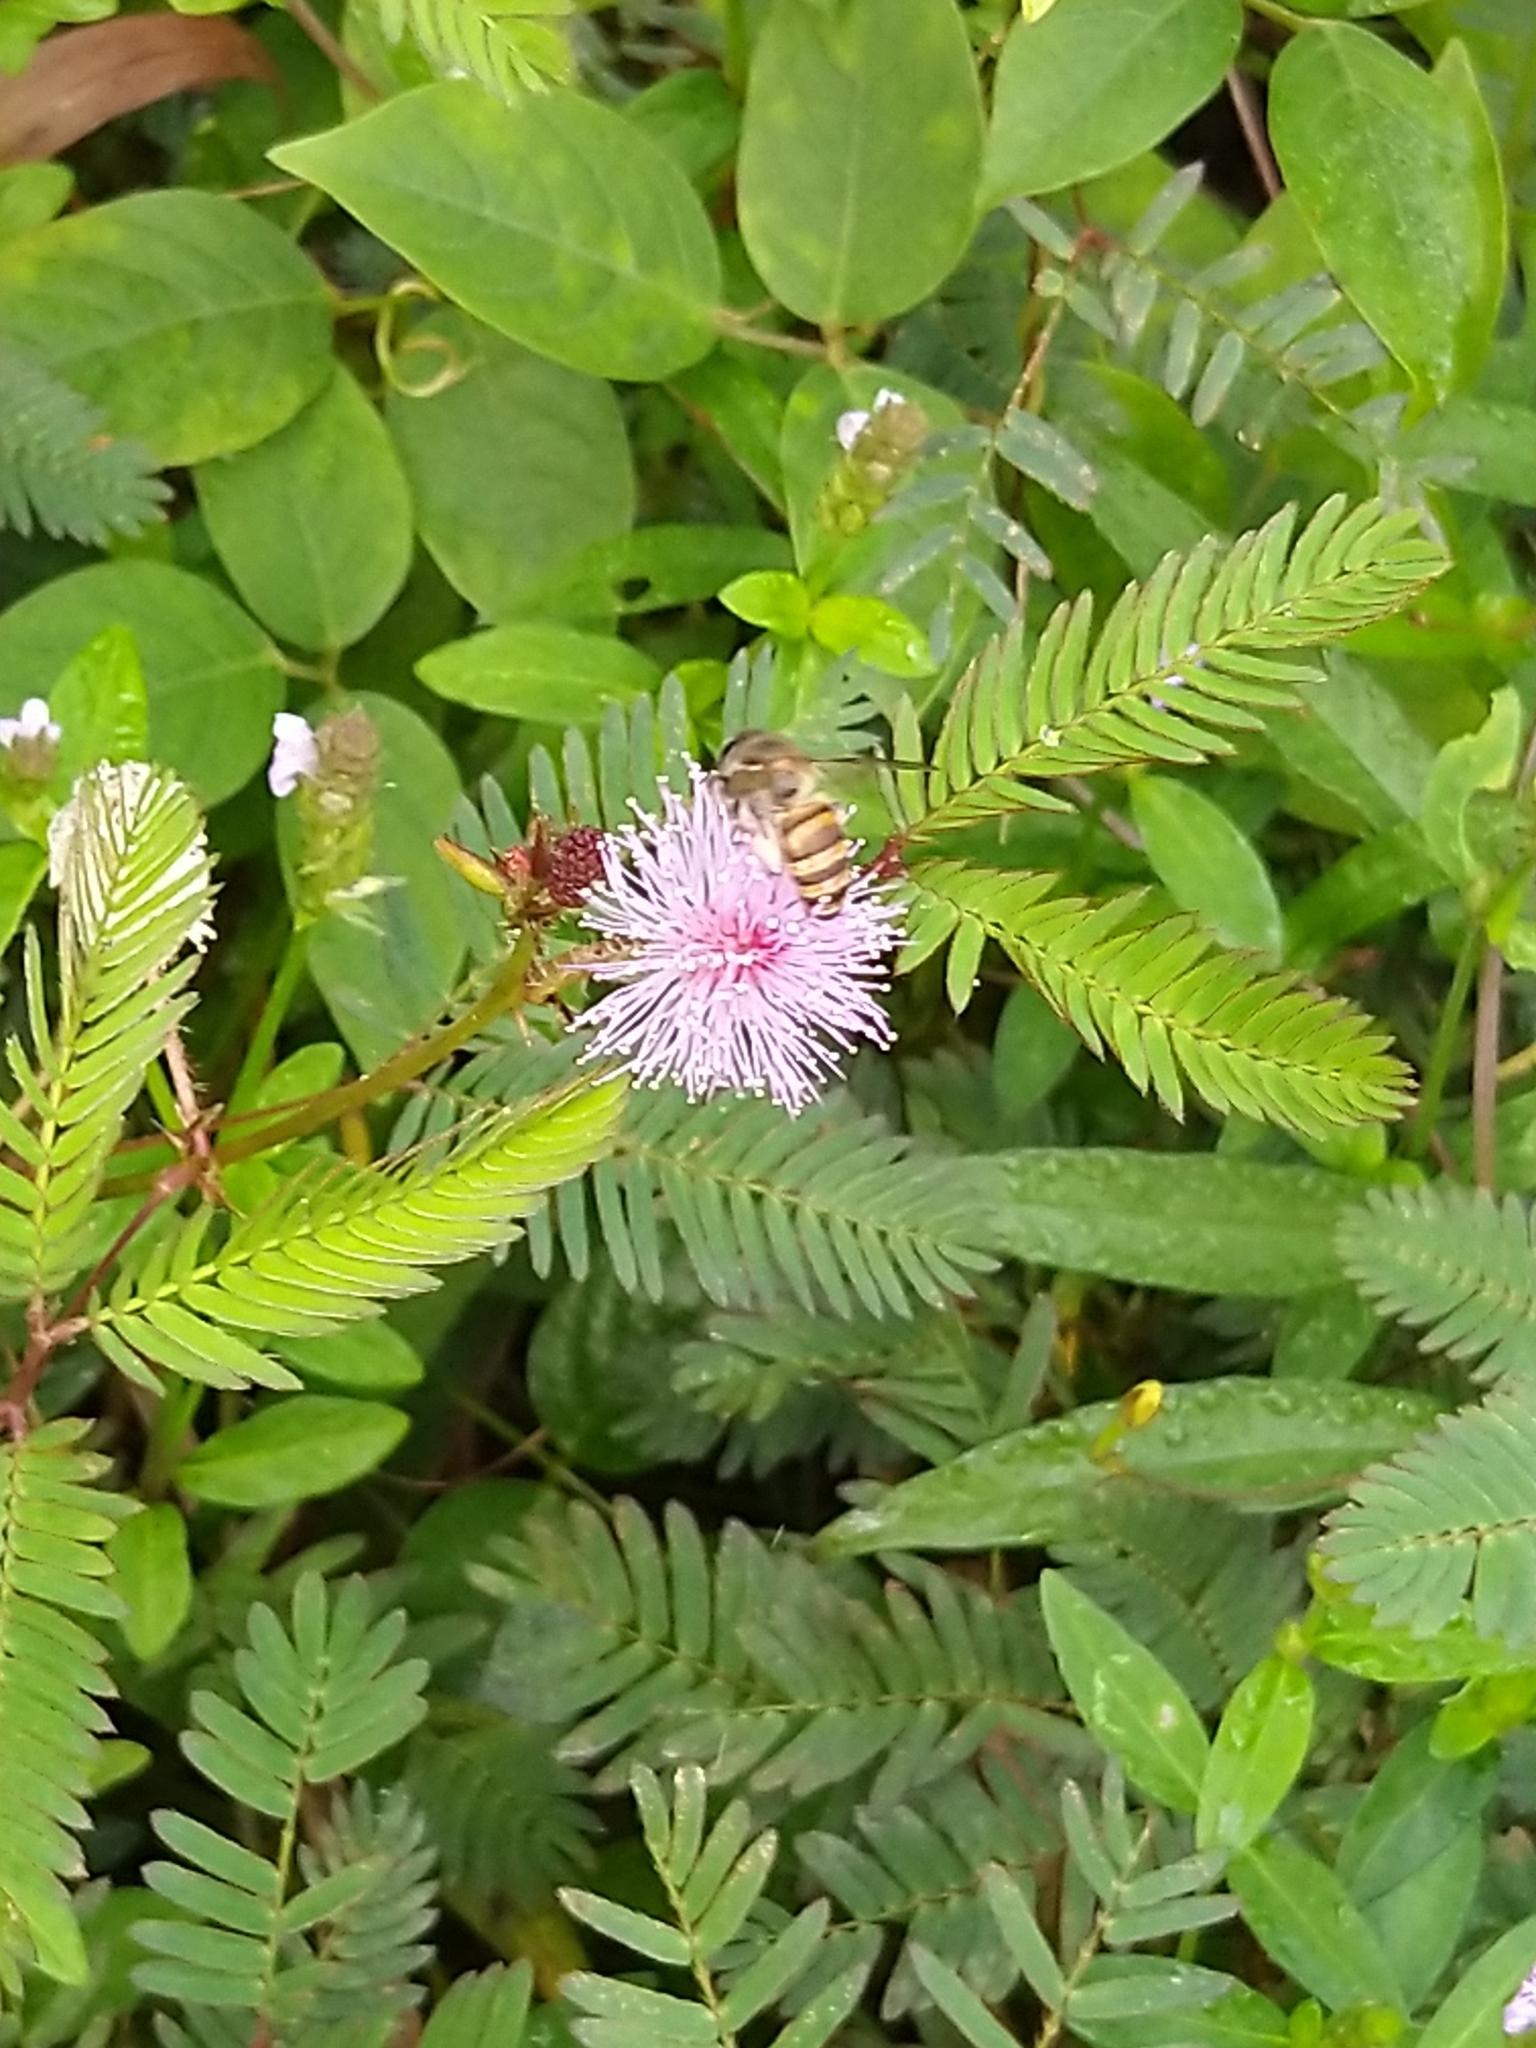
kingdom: Animalia
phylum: Arthropoda
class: Insecta
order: Hymenoptera
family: Apidae
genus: Apis
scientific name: Apis cerana
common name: Honey bee
